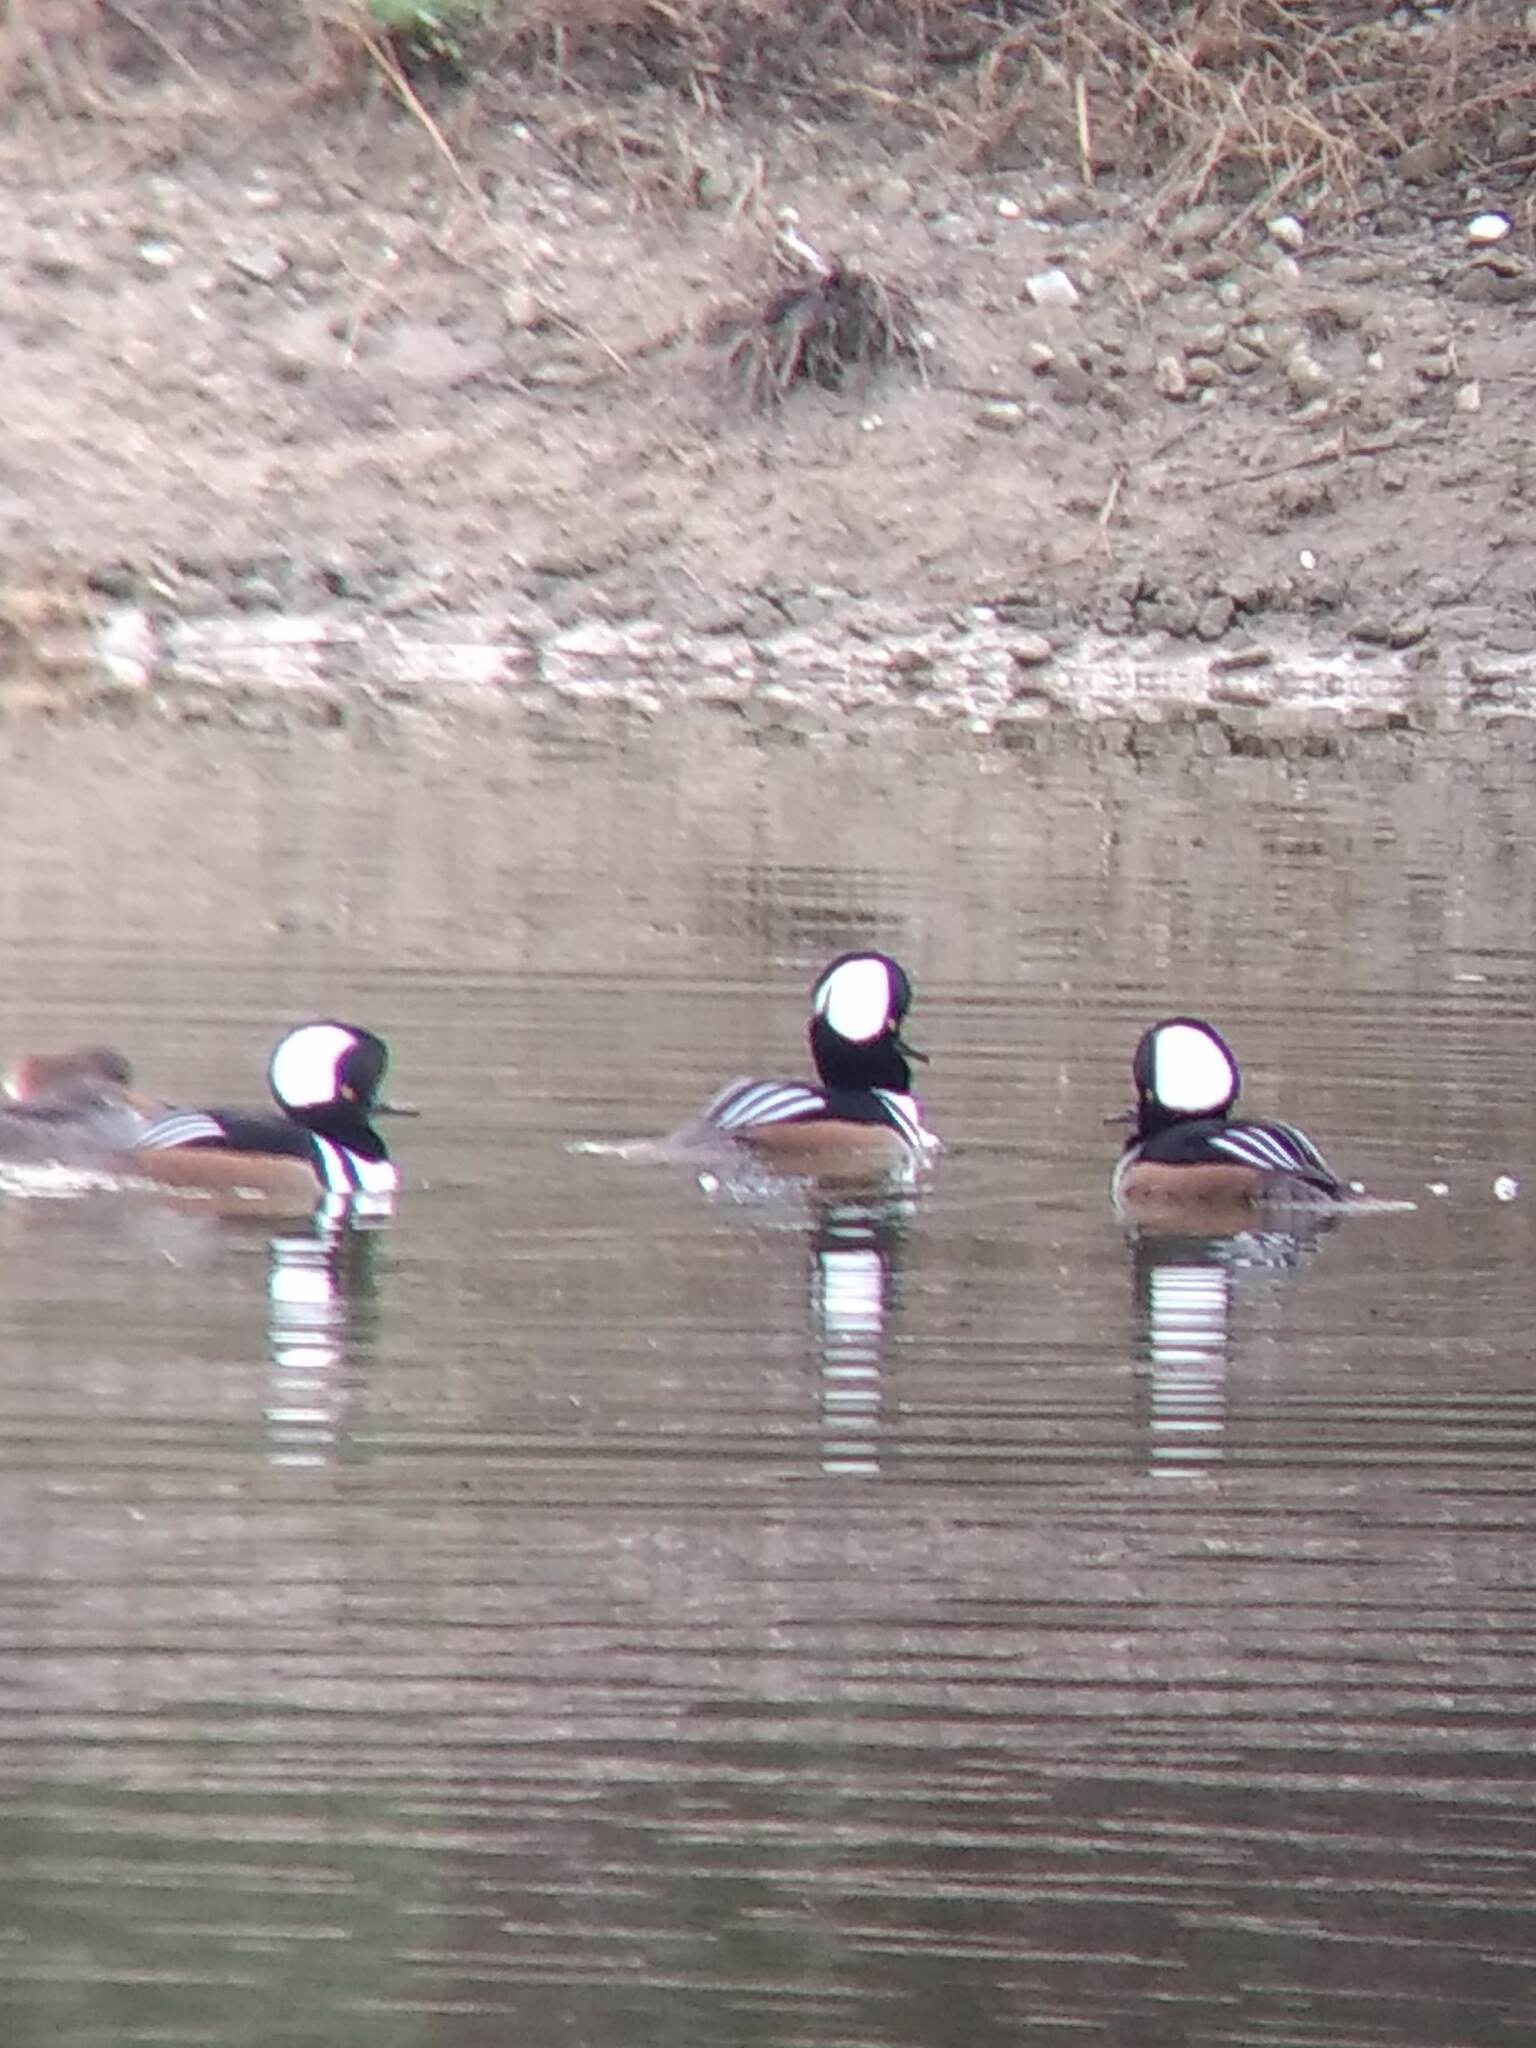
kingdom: Animalia
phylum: Chordata
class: Aves
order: Anseriformes
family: Anatidae
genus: Lophodytes
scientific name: Lophodytes cucullatus
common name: Hooded merganser
